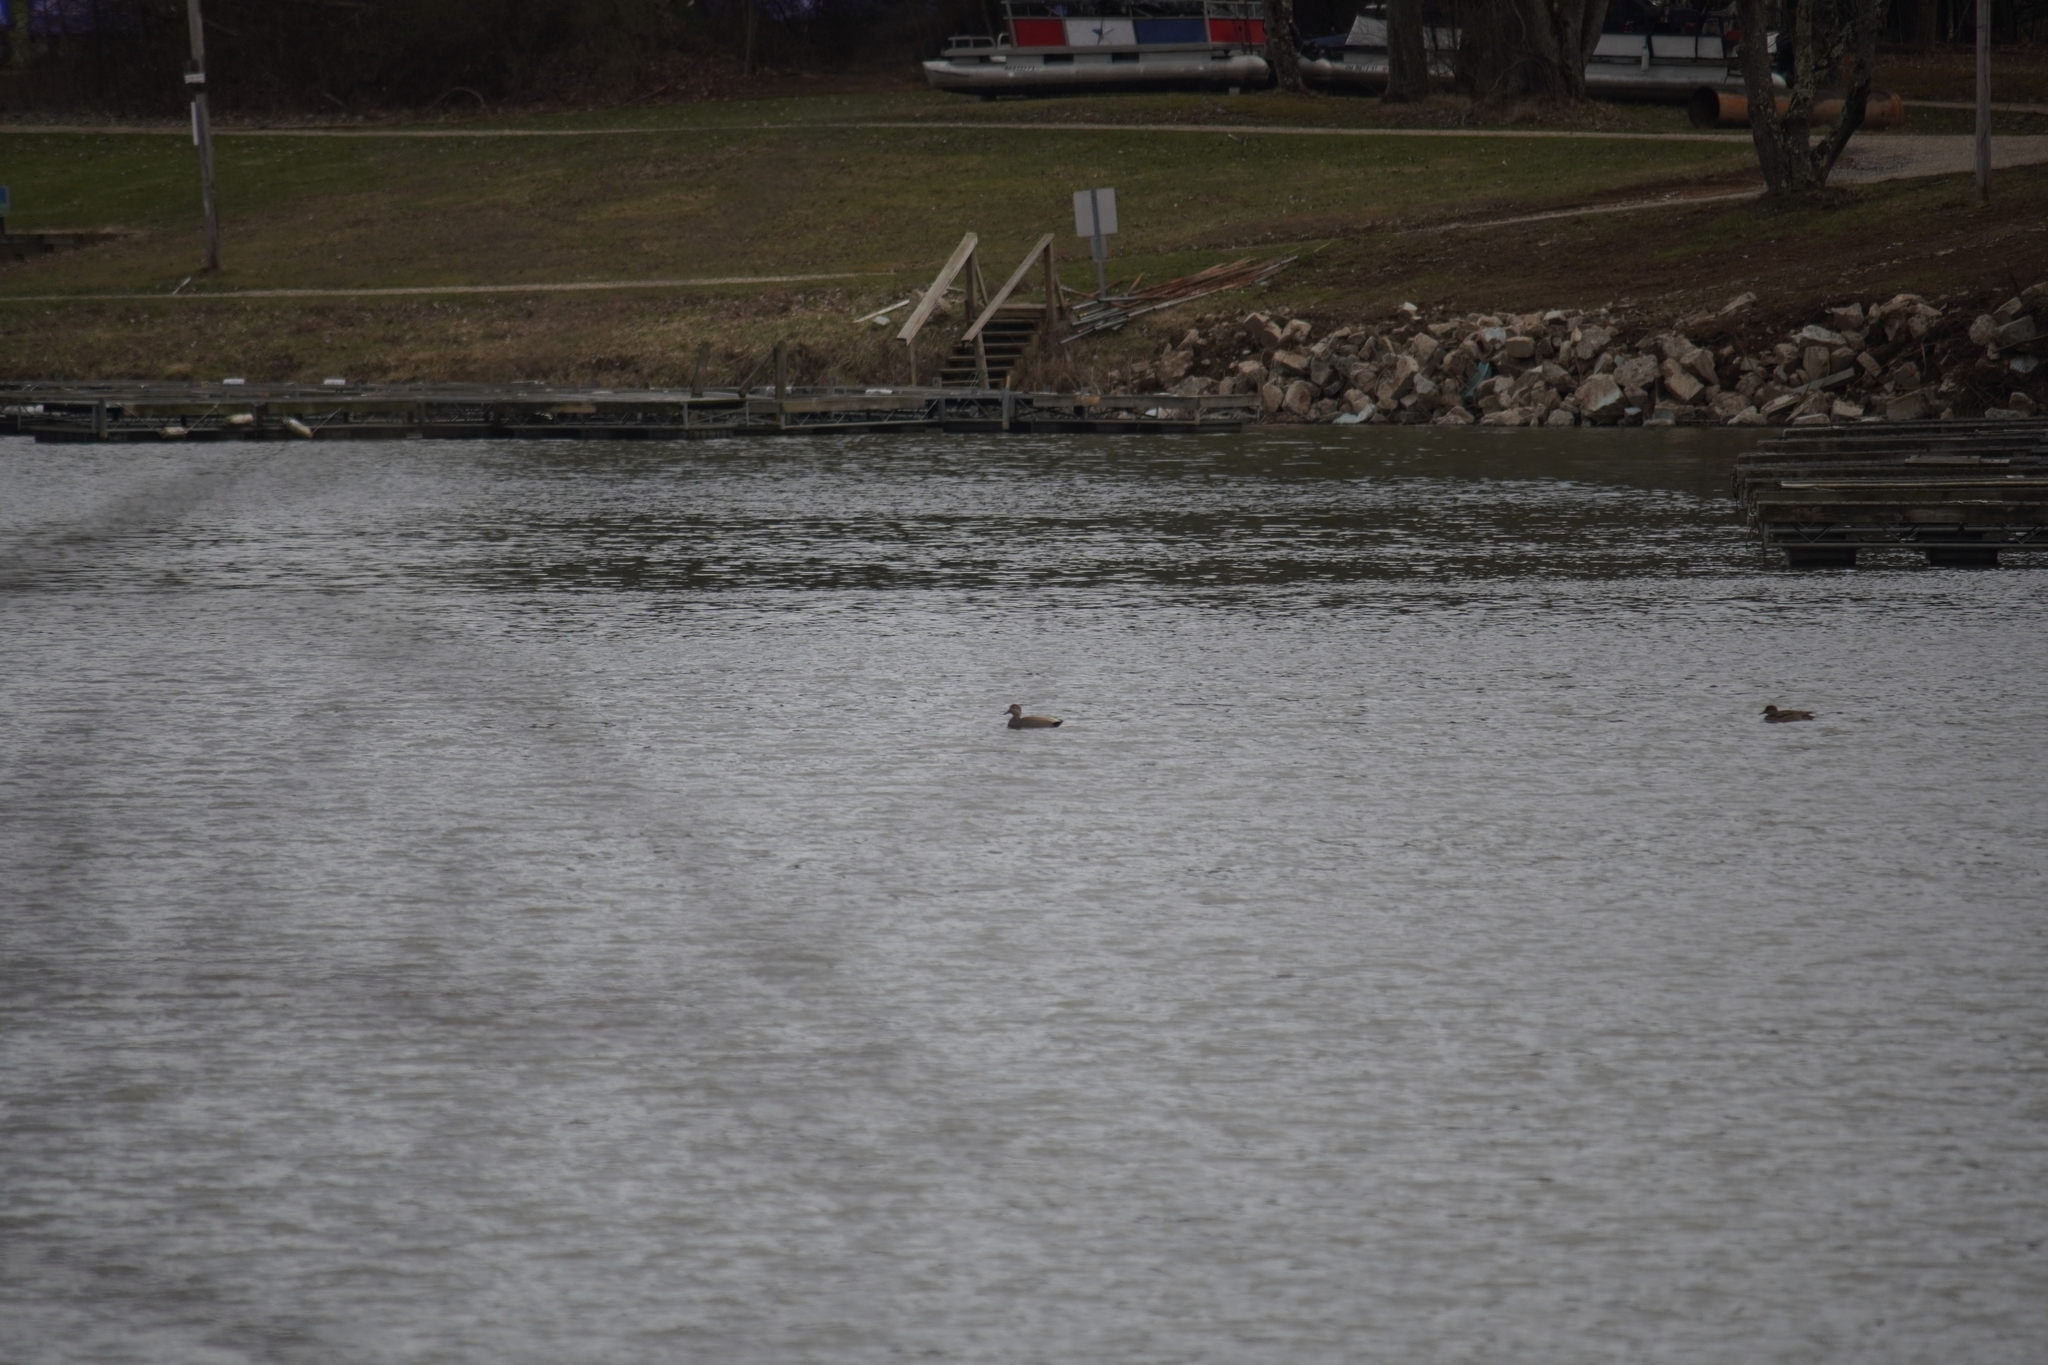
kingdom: Animalia
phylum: Chordata
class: Aves
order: Anseriformes
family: Anatidae
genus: Mareca
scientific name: Mareca strepera
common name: Gadwall
